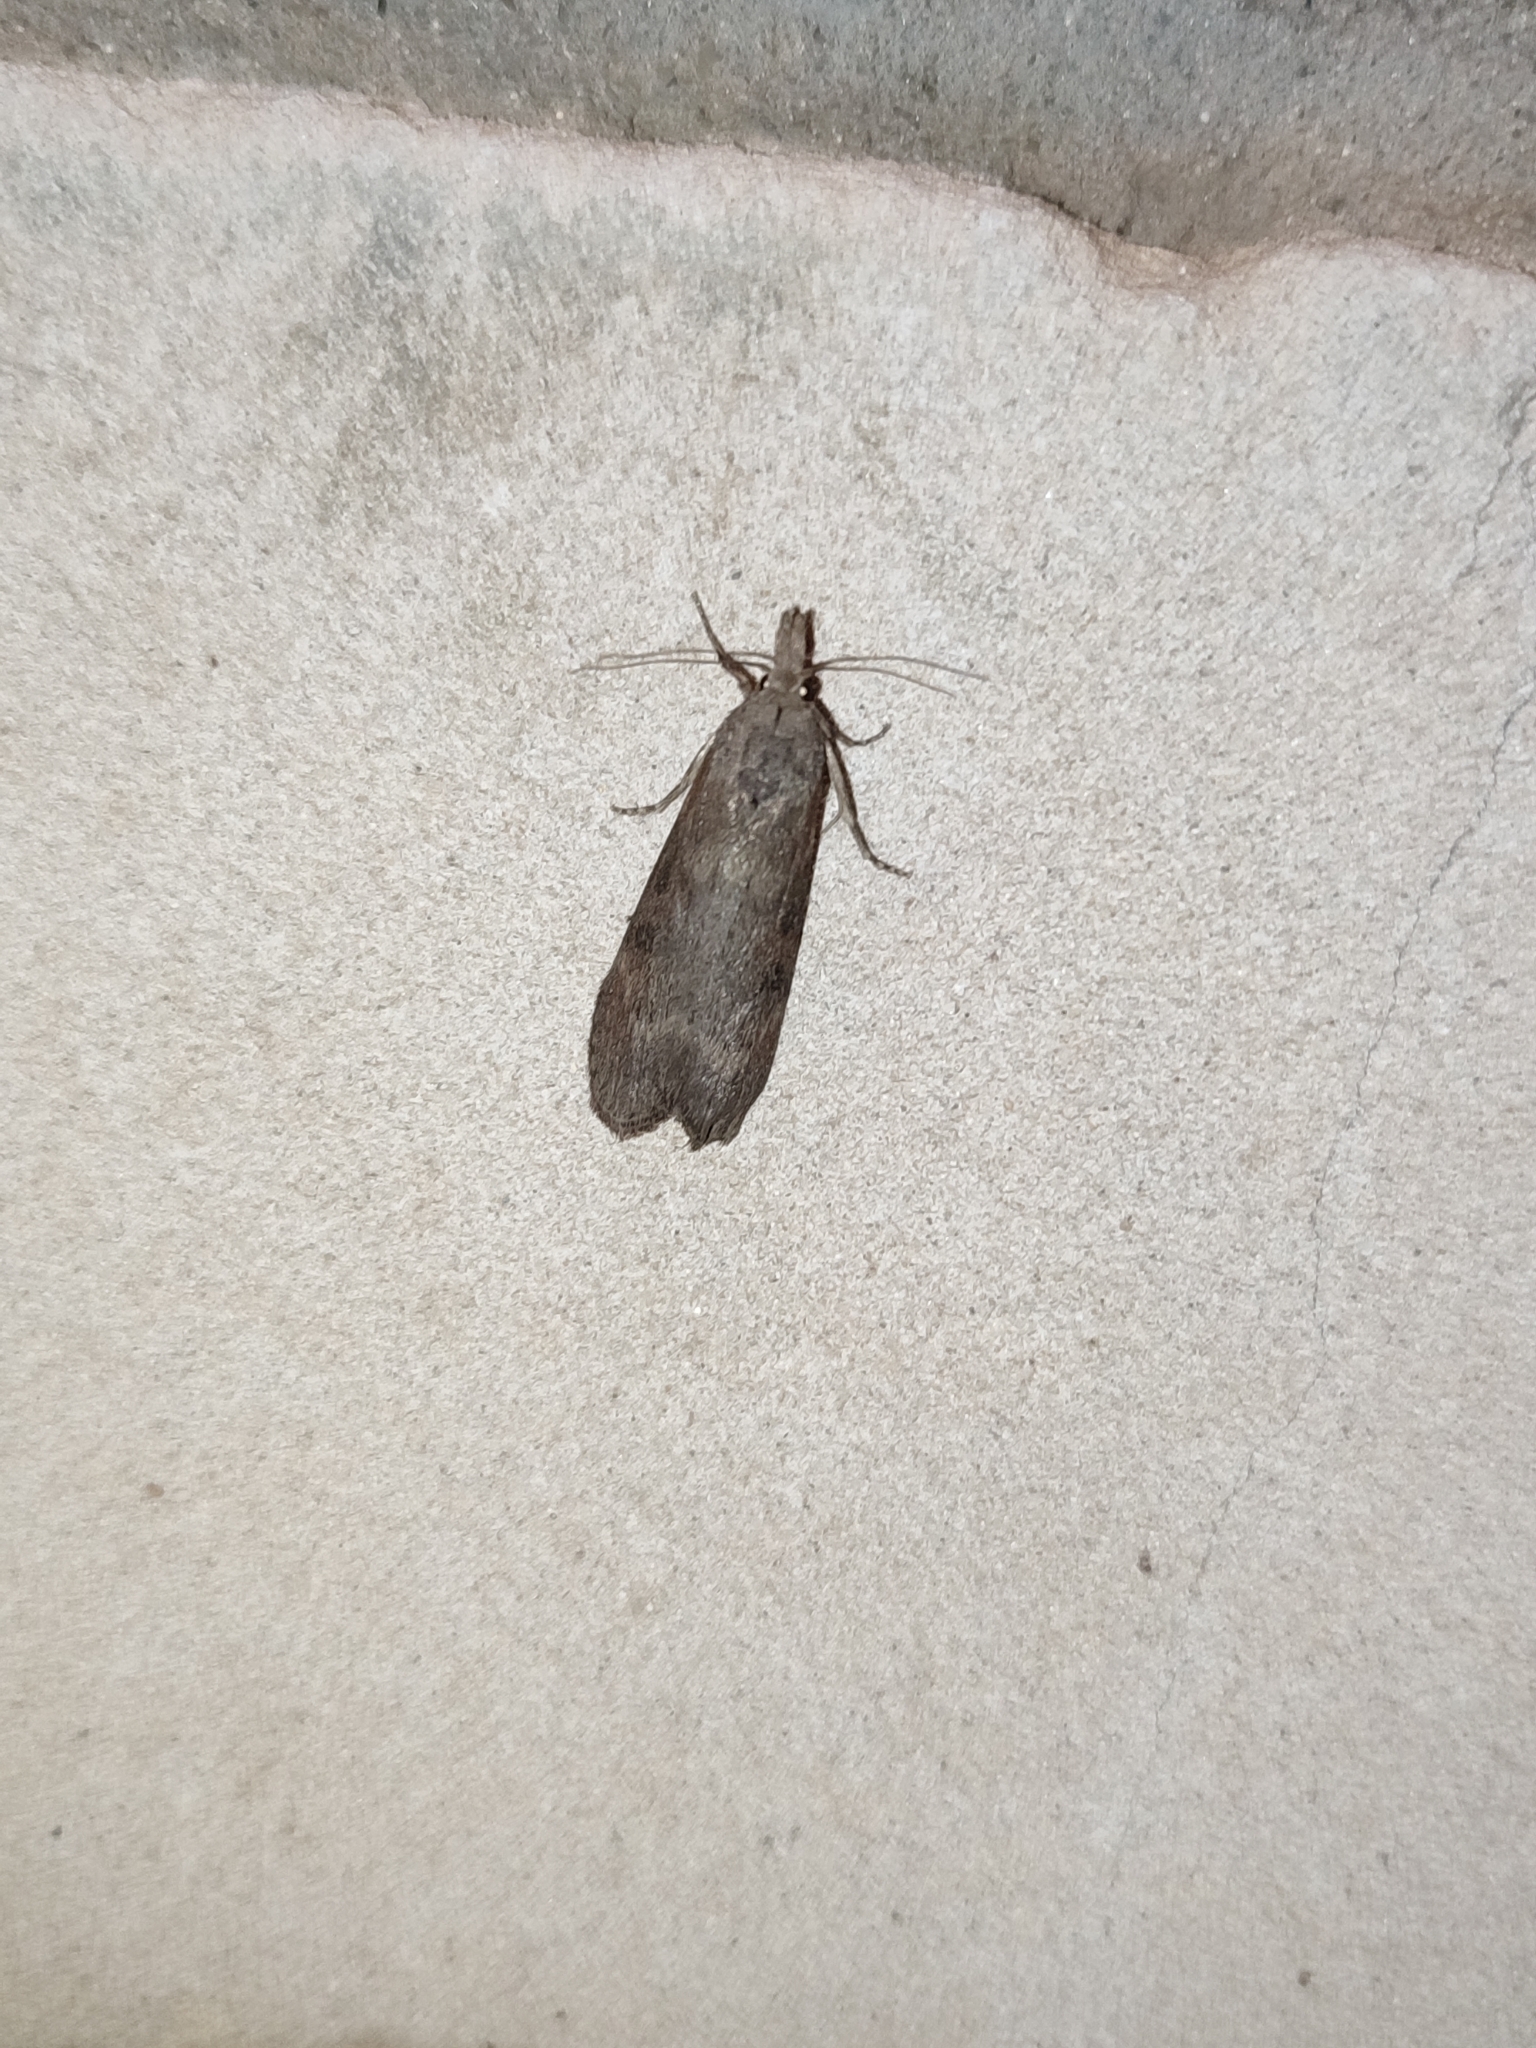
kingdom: Animalia
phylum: Arthropoda
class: Insecta
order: Lepidoptera
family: Pyralidae
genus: Lamoria
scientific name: Lamoria anella
